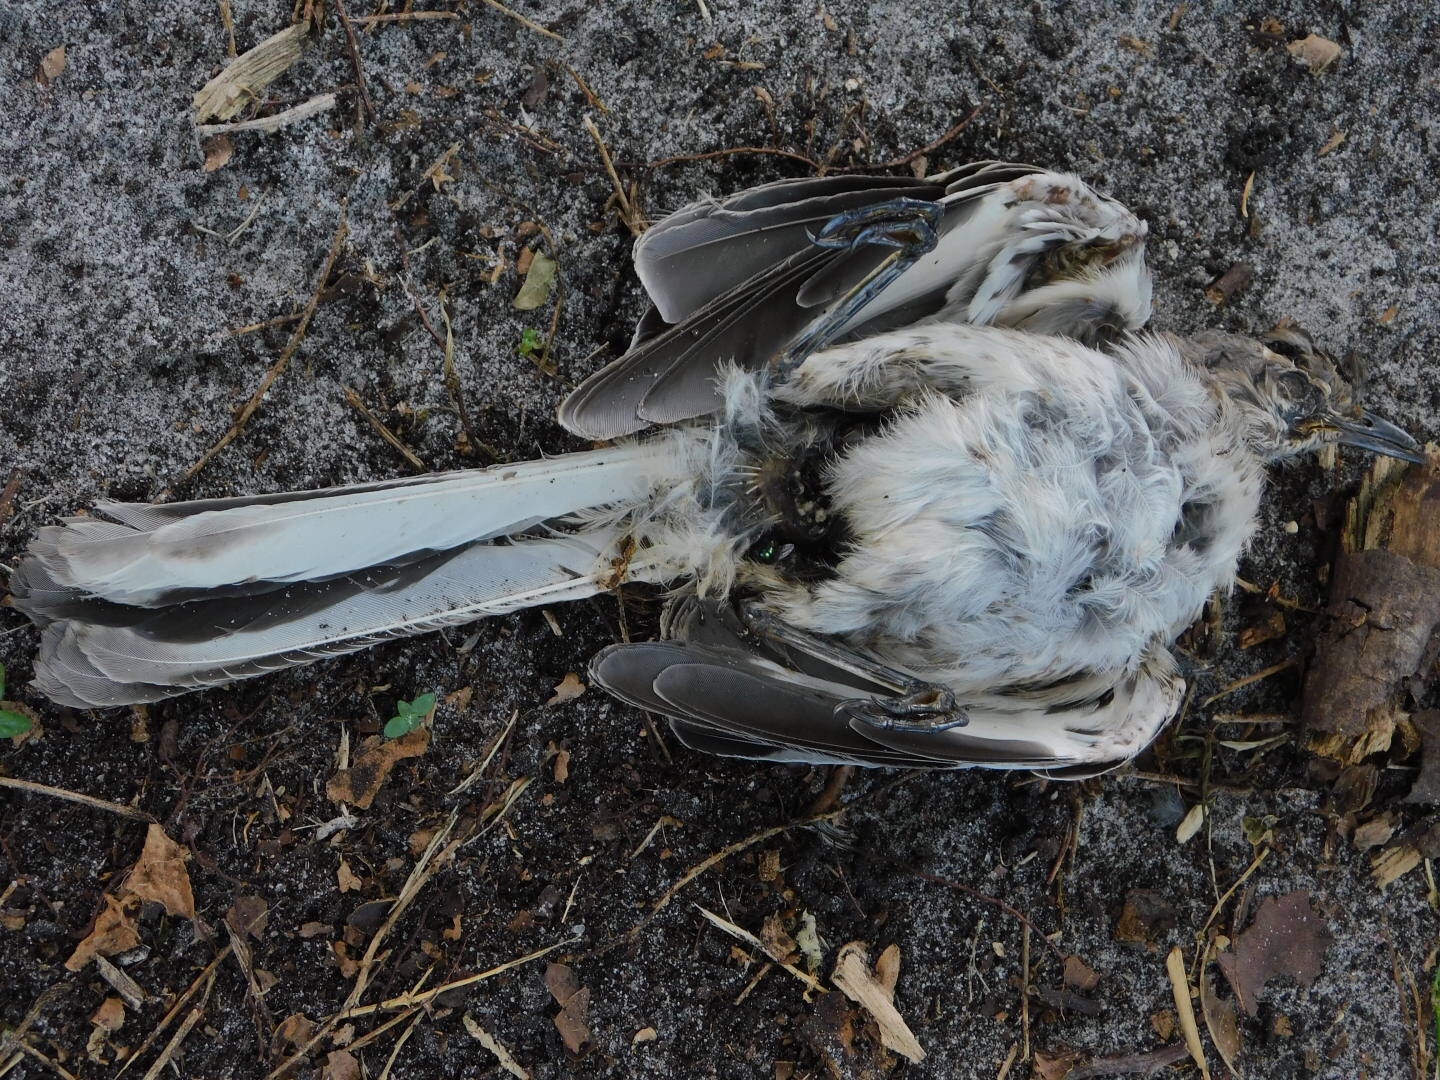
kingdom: Animalia
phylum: Chordata
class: Aves
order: Passeriformes
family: Mimidae
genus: Mimus
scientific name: Mimus polyglottos
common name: Northern mockingbird
